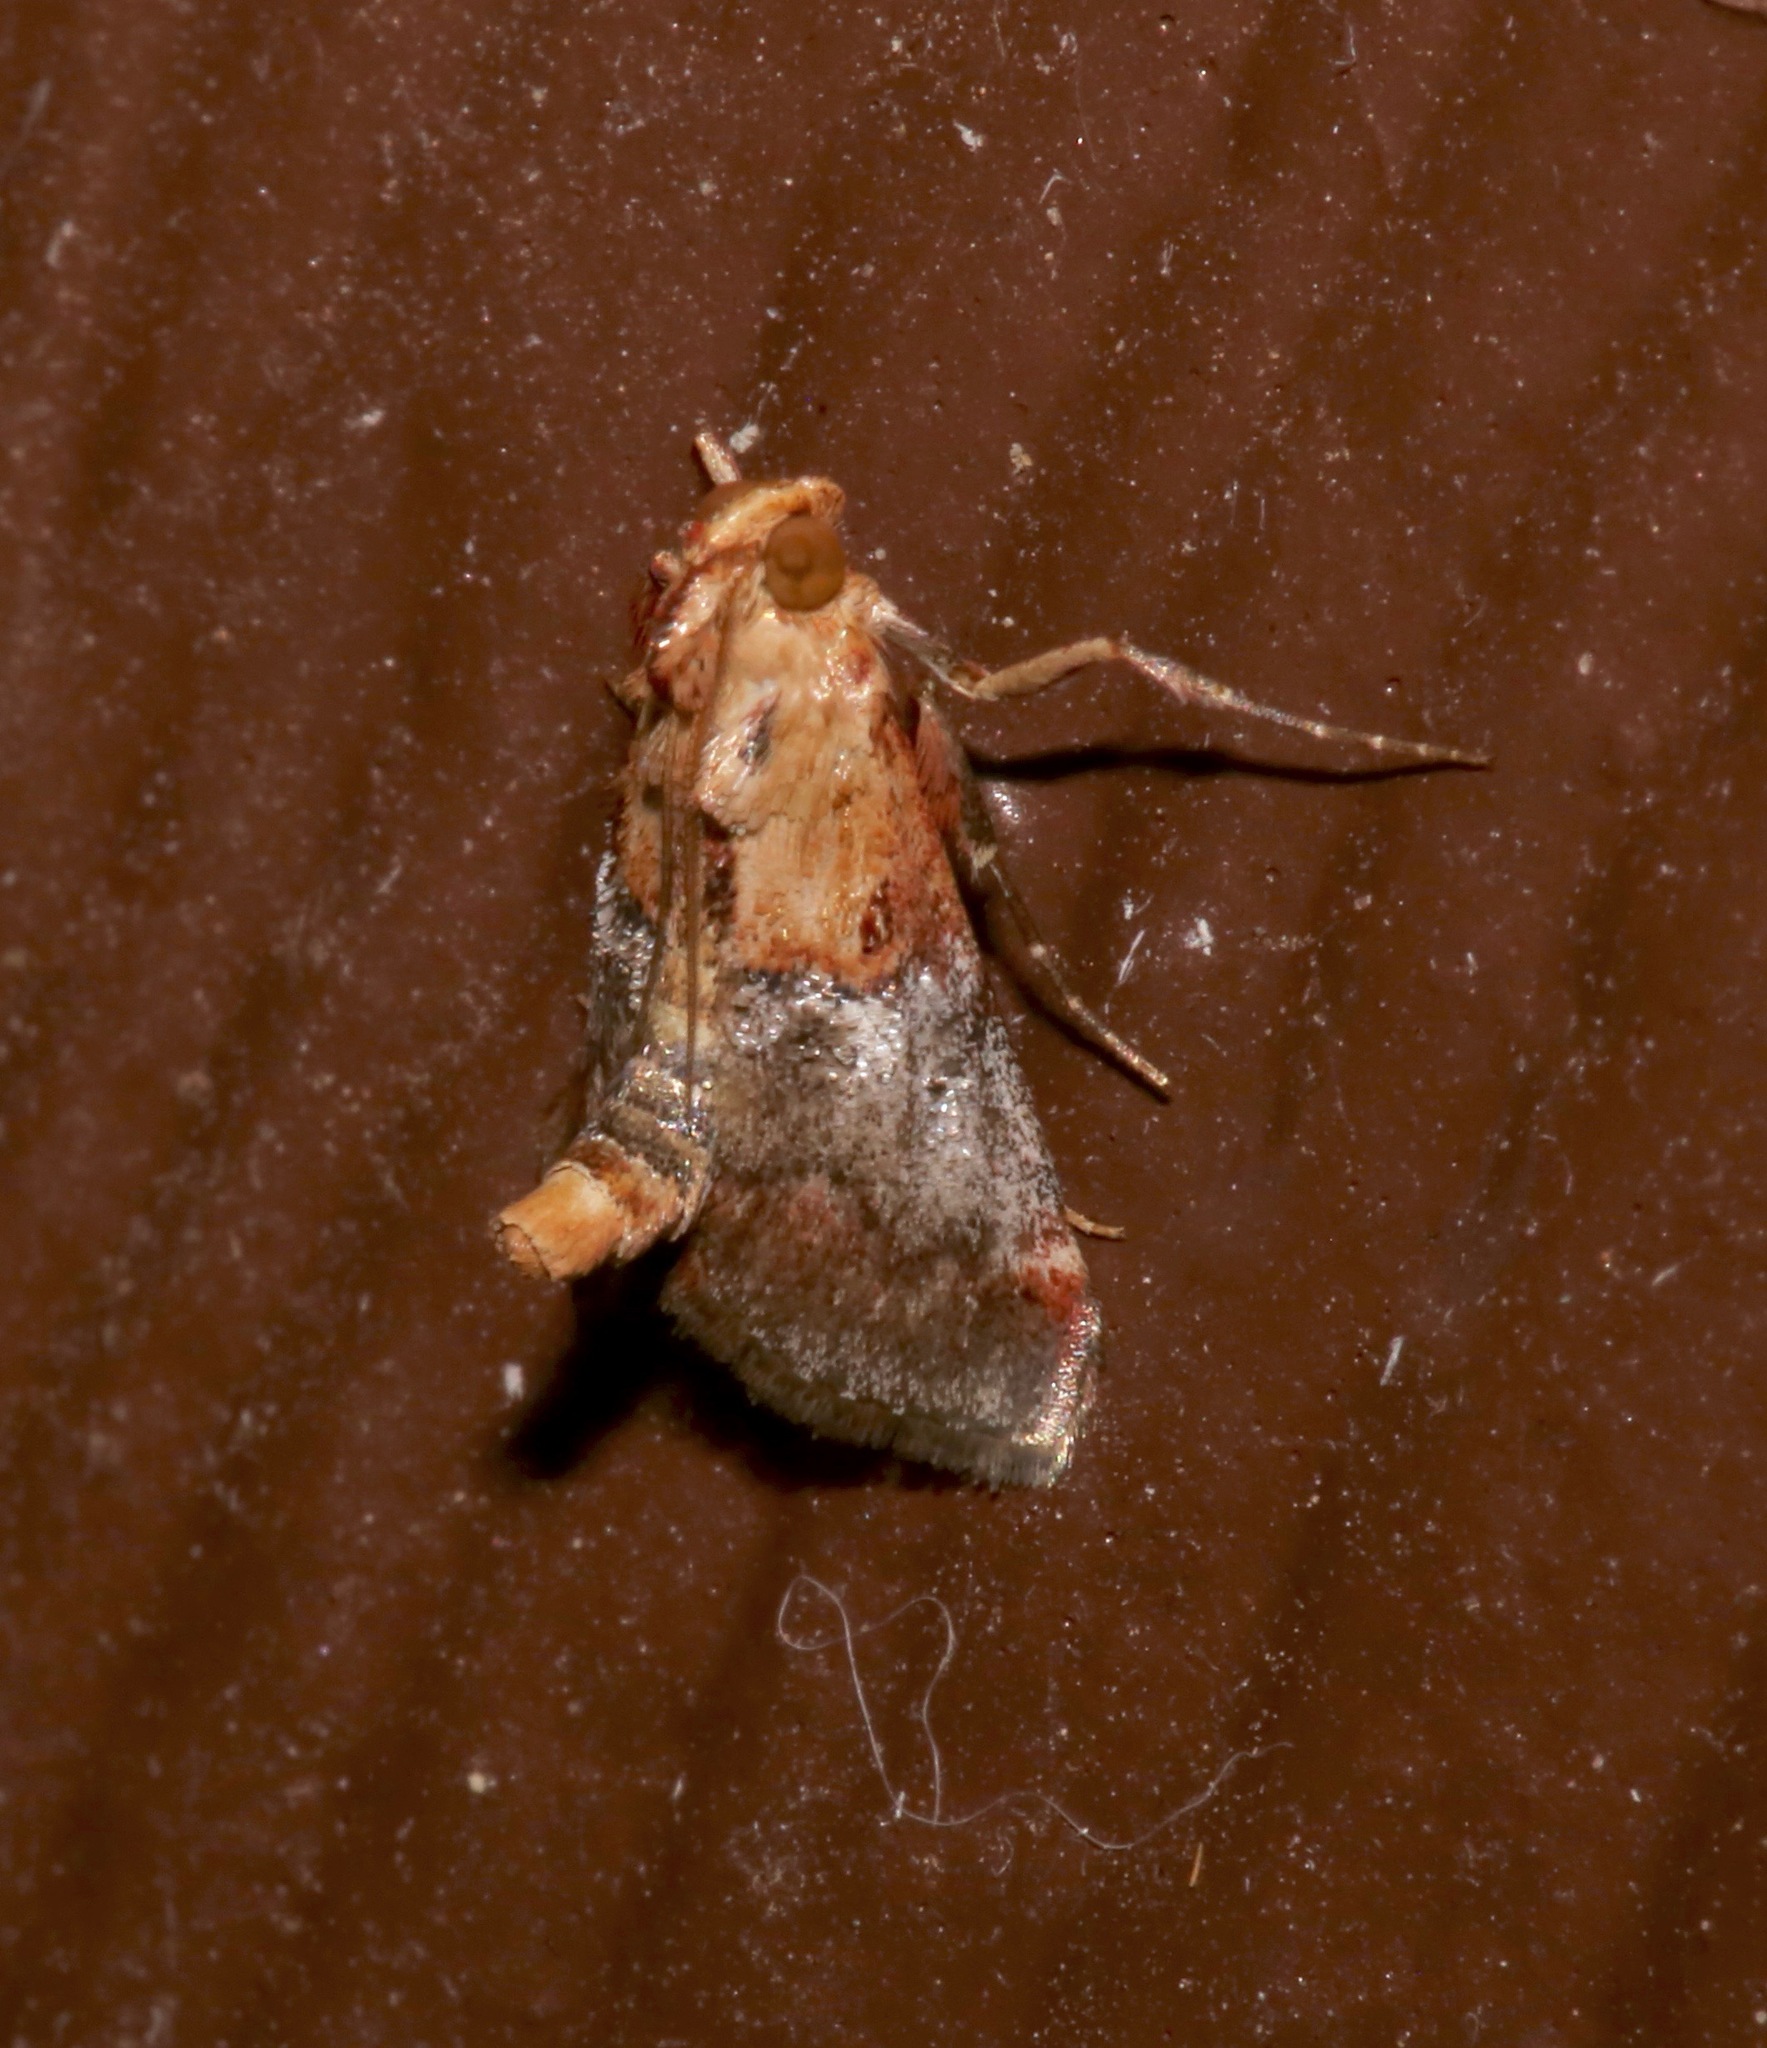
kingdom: Animalia
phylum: Arthropoda
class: Insecta
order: Lepidoptera
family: Pyralidae
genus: Cacozelia
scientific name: Cacozelia basiochrealis
